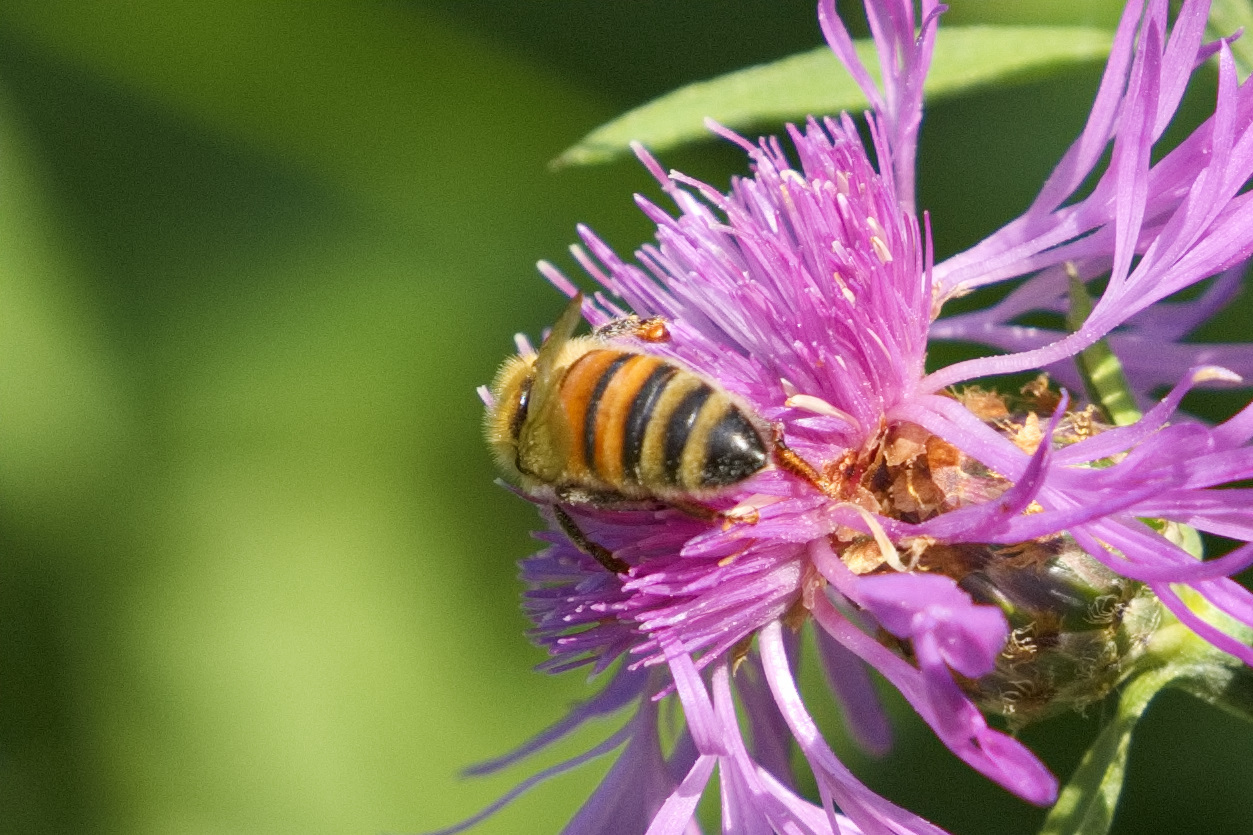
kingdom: Animalia
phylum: Arthropoda
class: Insecta
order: Hymenoptera
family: Apidae
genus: Apis
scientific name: Apis mellifera
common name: Honey bee
